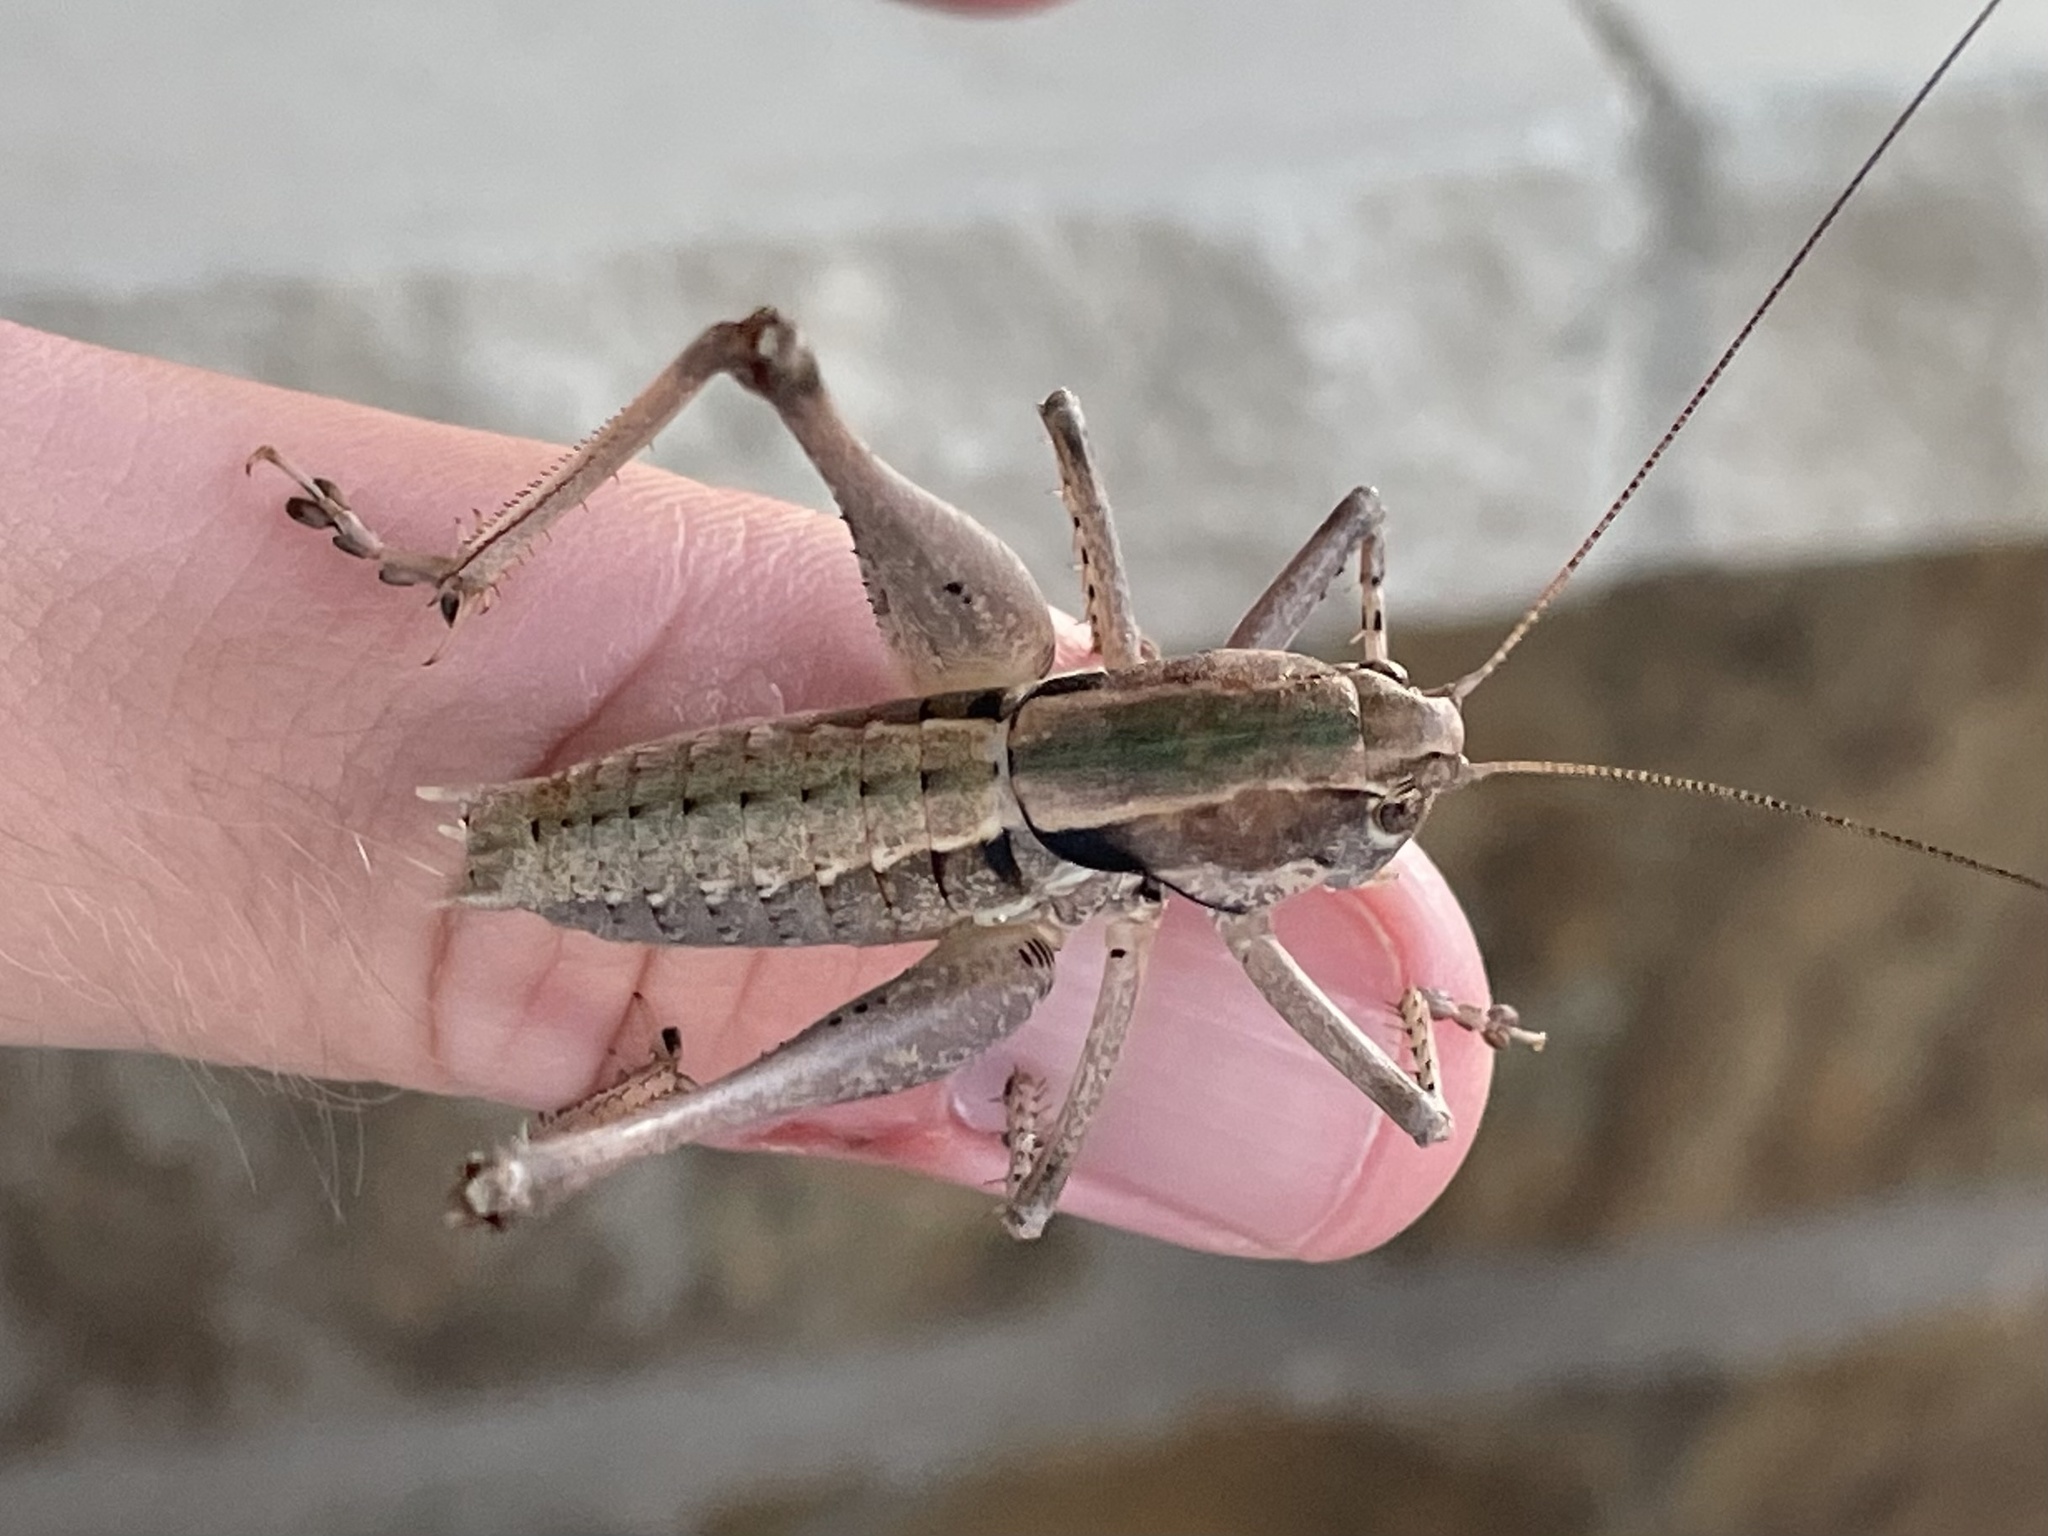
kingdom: Animalia
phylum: Arthropoda
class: Insecta
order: Orthoptera
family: Tettigoniidae
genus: Pediodectes
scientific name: Pediodectes nigromarginatus
